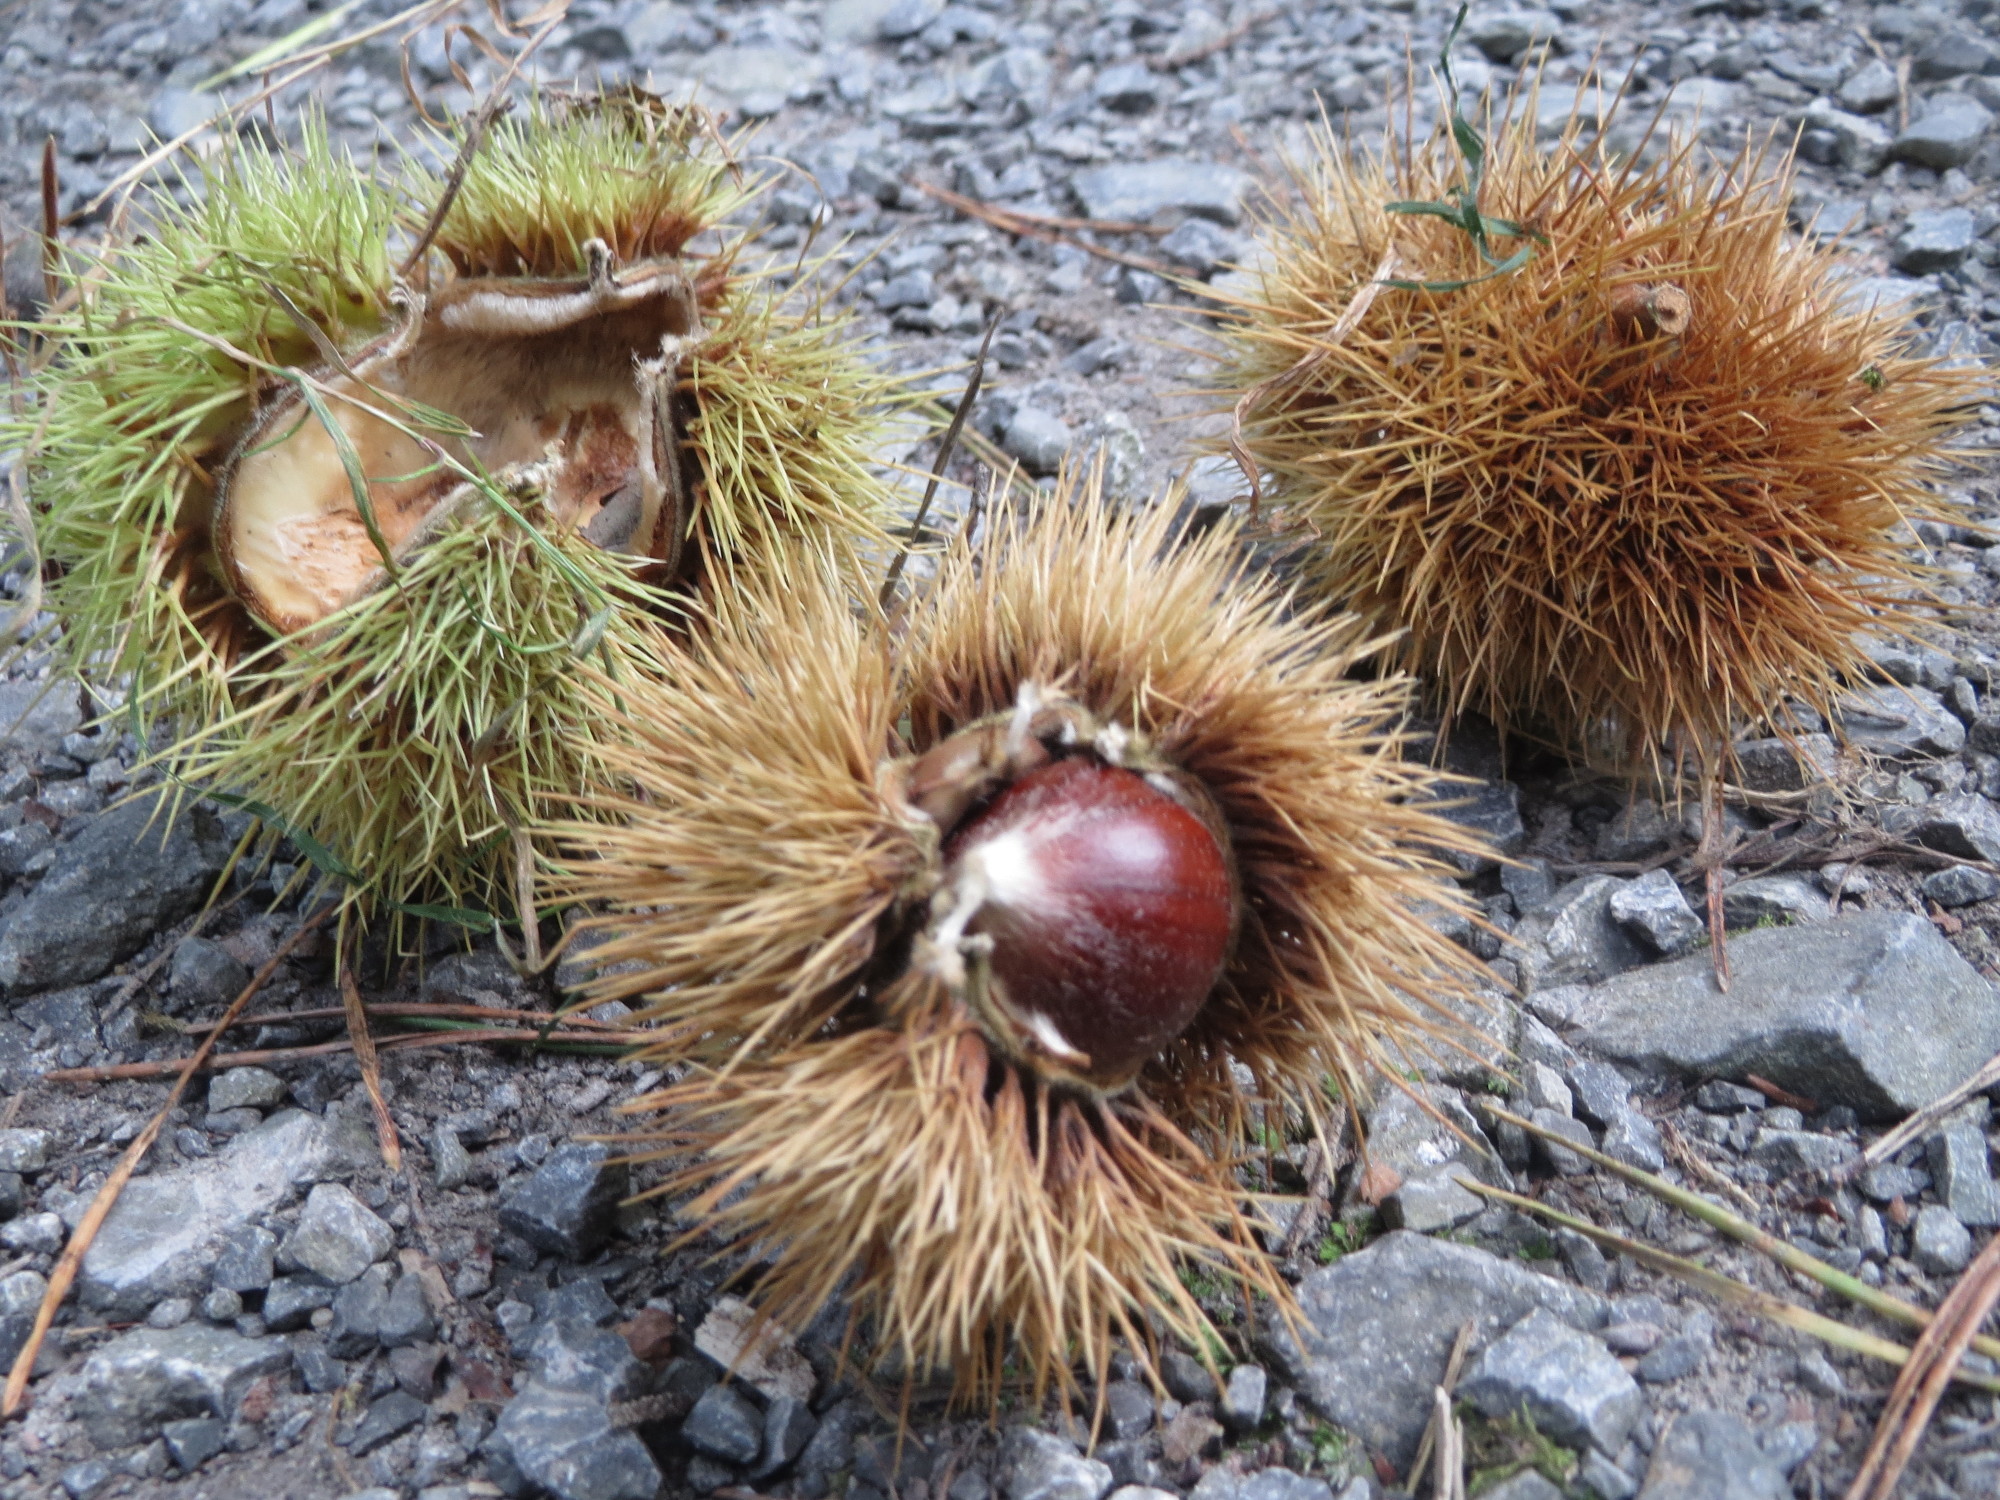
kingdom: Plantae
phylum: Tracheophyta
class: Magnoliopsida
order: Fagales
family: Fagaceae
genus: Castanea
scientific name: Castanea sativa
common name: Sweet chestnut
